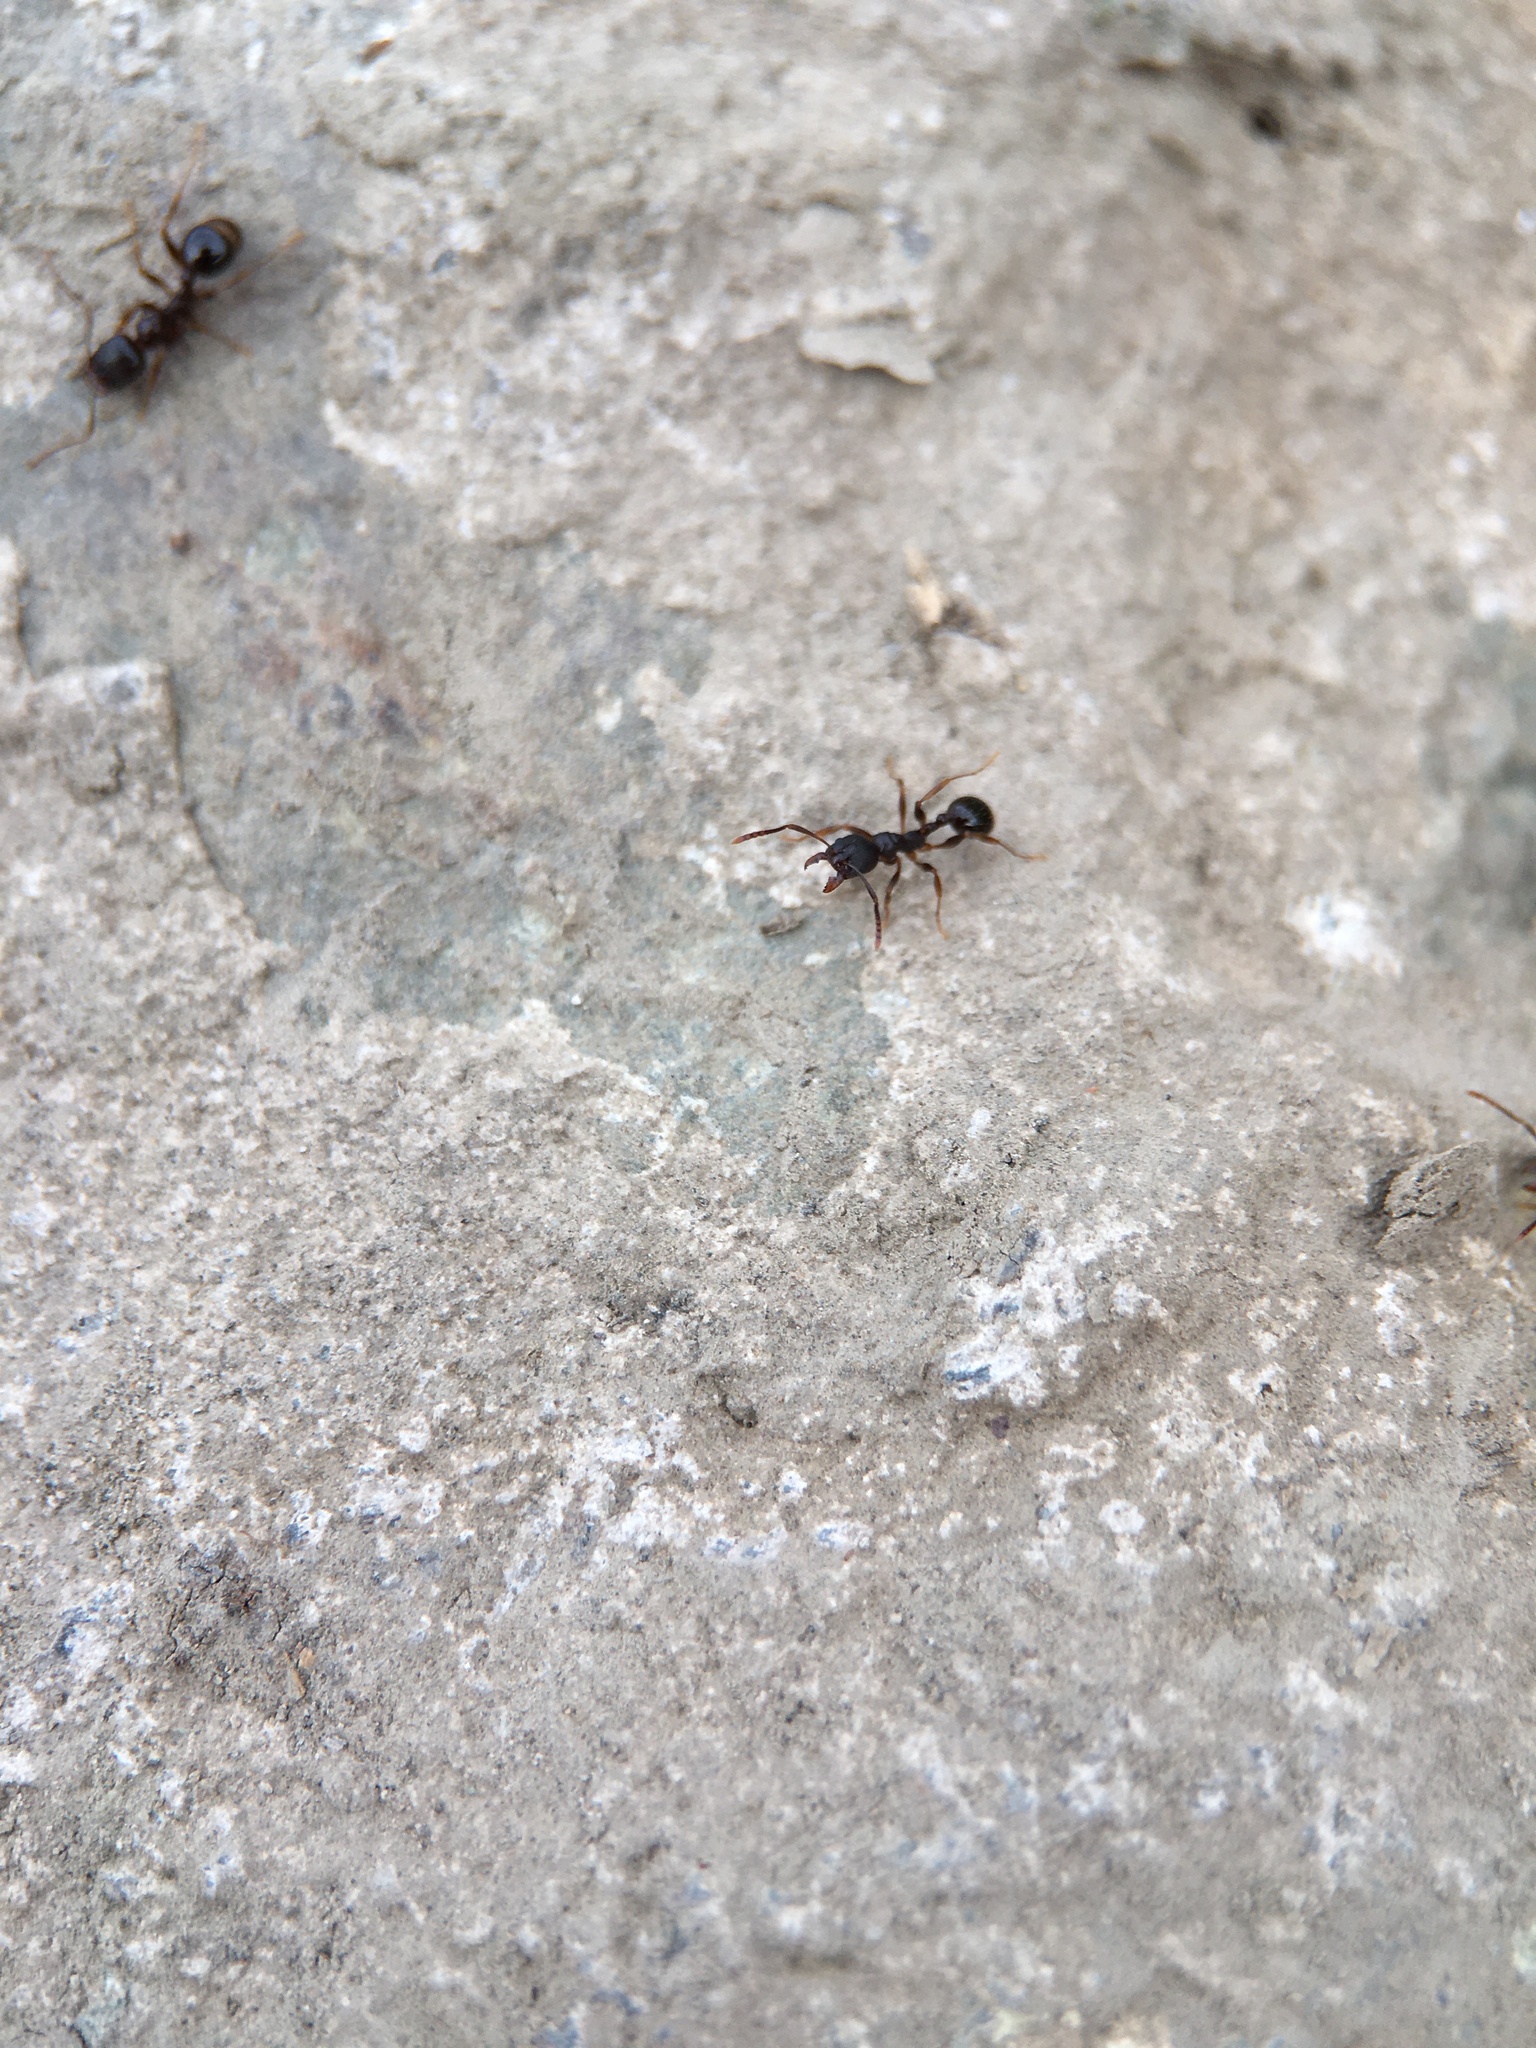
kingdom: Animalia
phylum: Arthropoda
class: Insecta
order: Hymenoptera
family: Formicidae
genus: Aphaenogaster
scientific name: Aphaenogaster occidentalis
